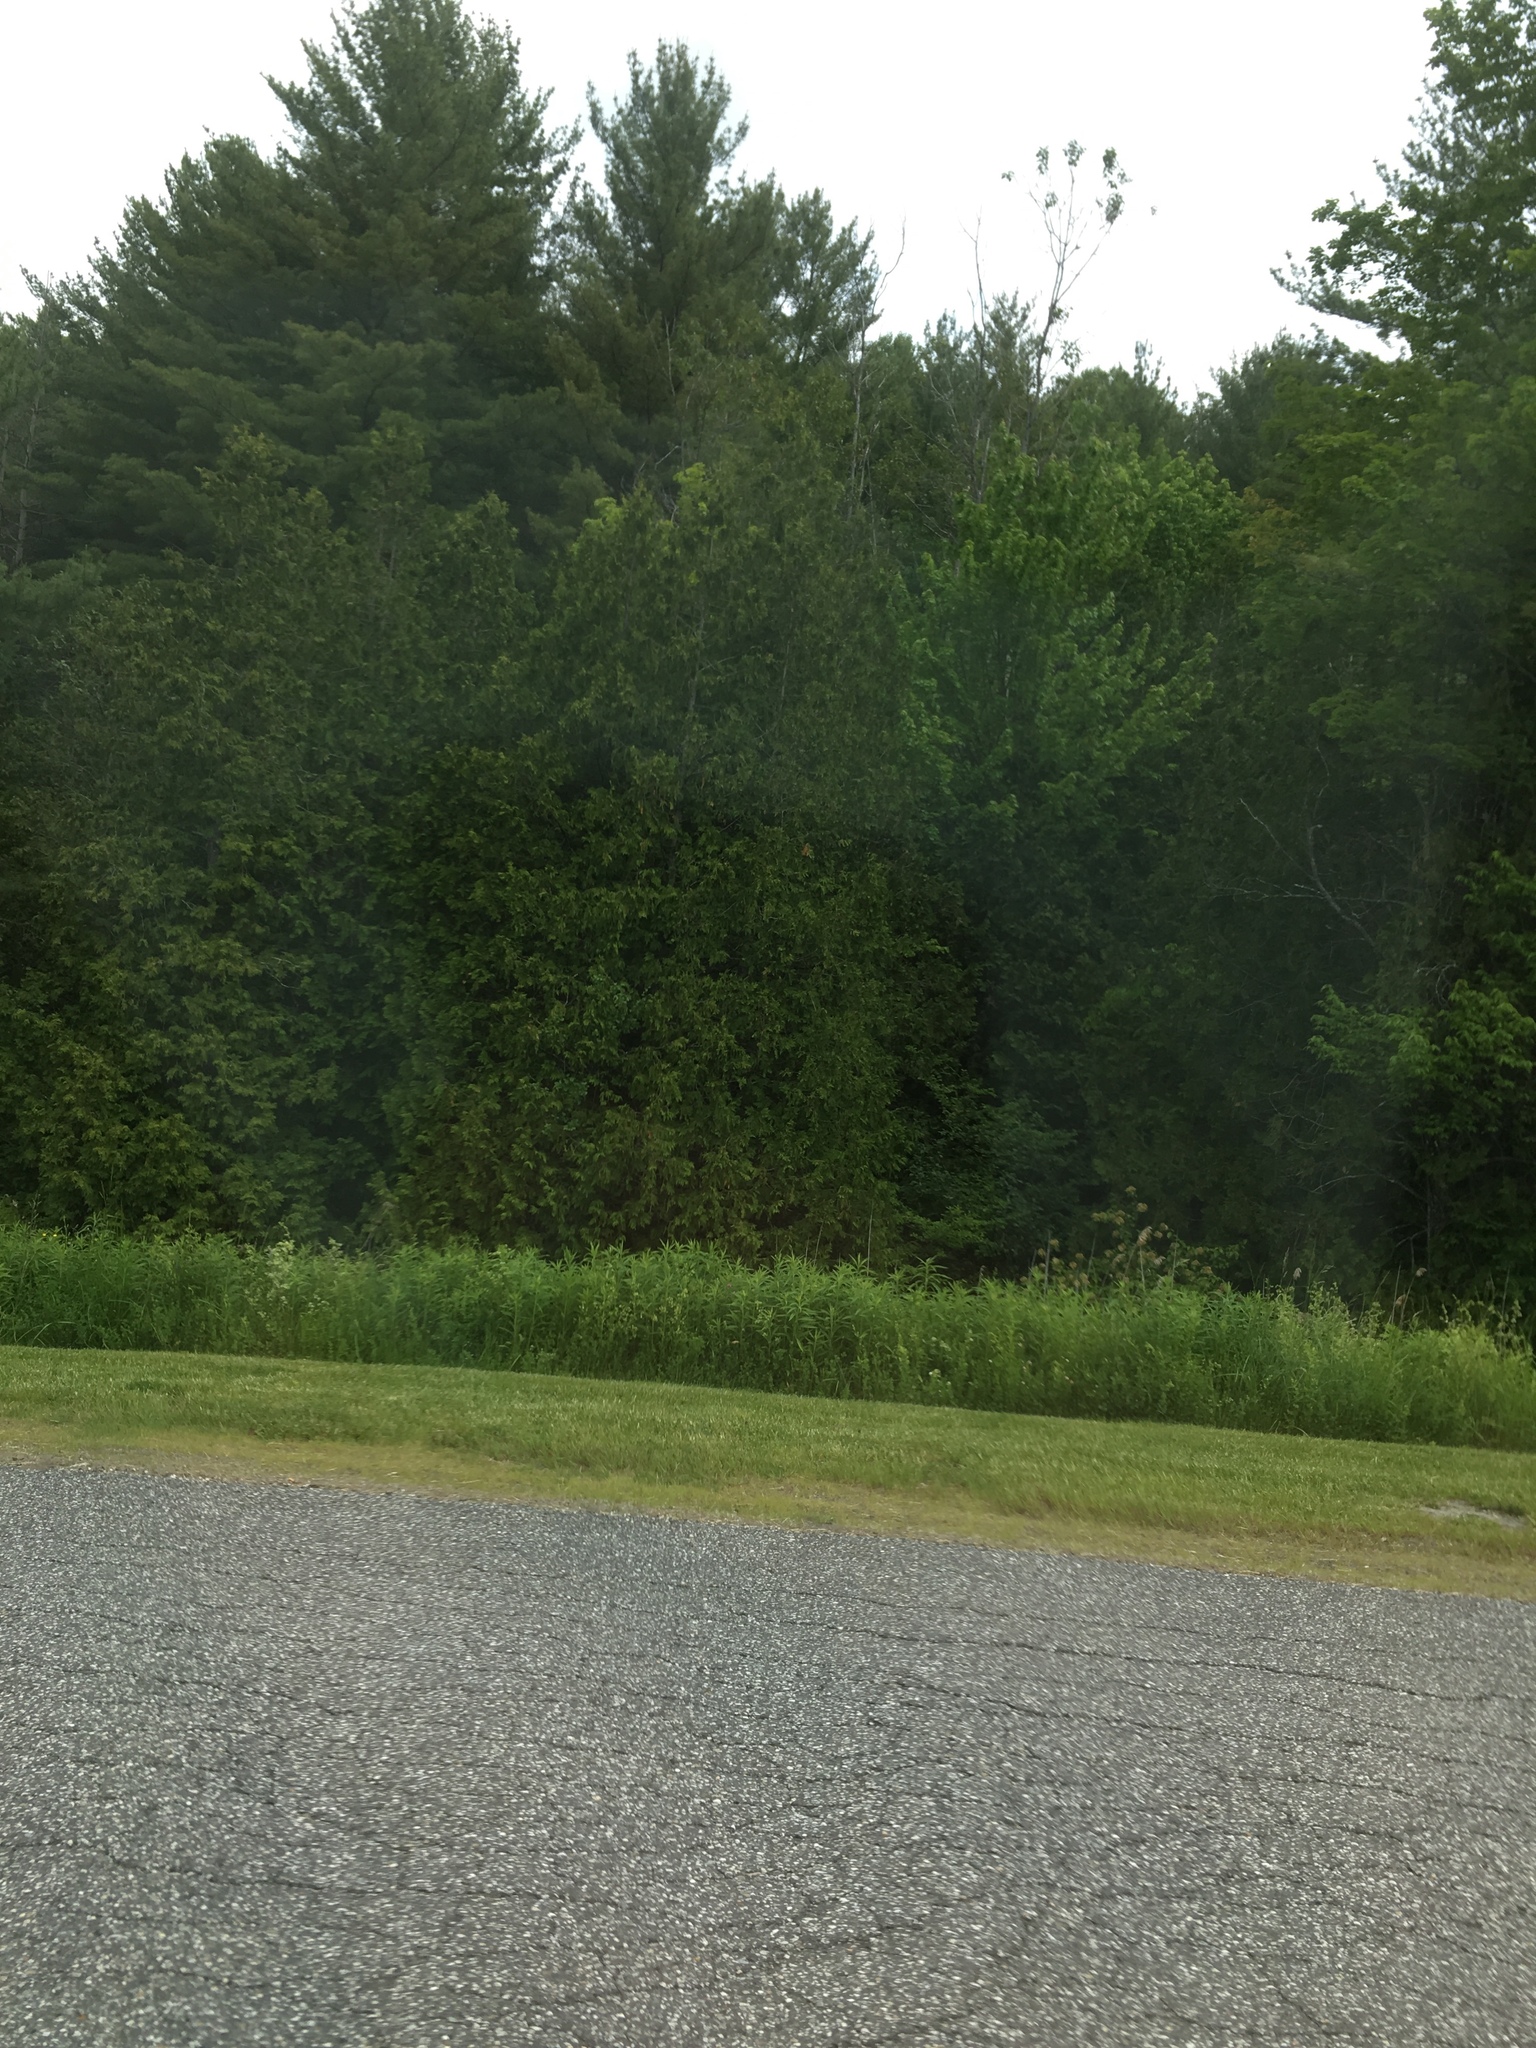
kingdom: Plantae
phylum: Tracheophyta
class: Pinopsida
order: Pinales
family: Cupressaceae
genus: Thuja
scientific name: Thuja occidentalis
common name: Northern white-cedar
